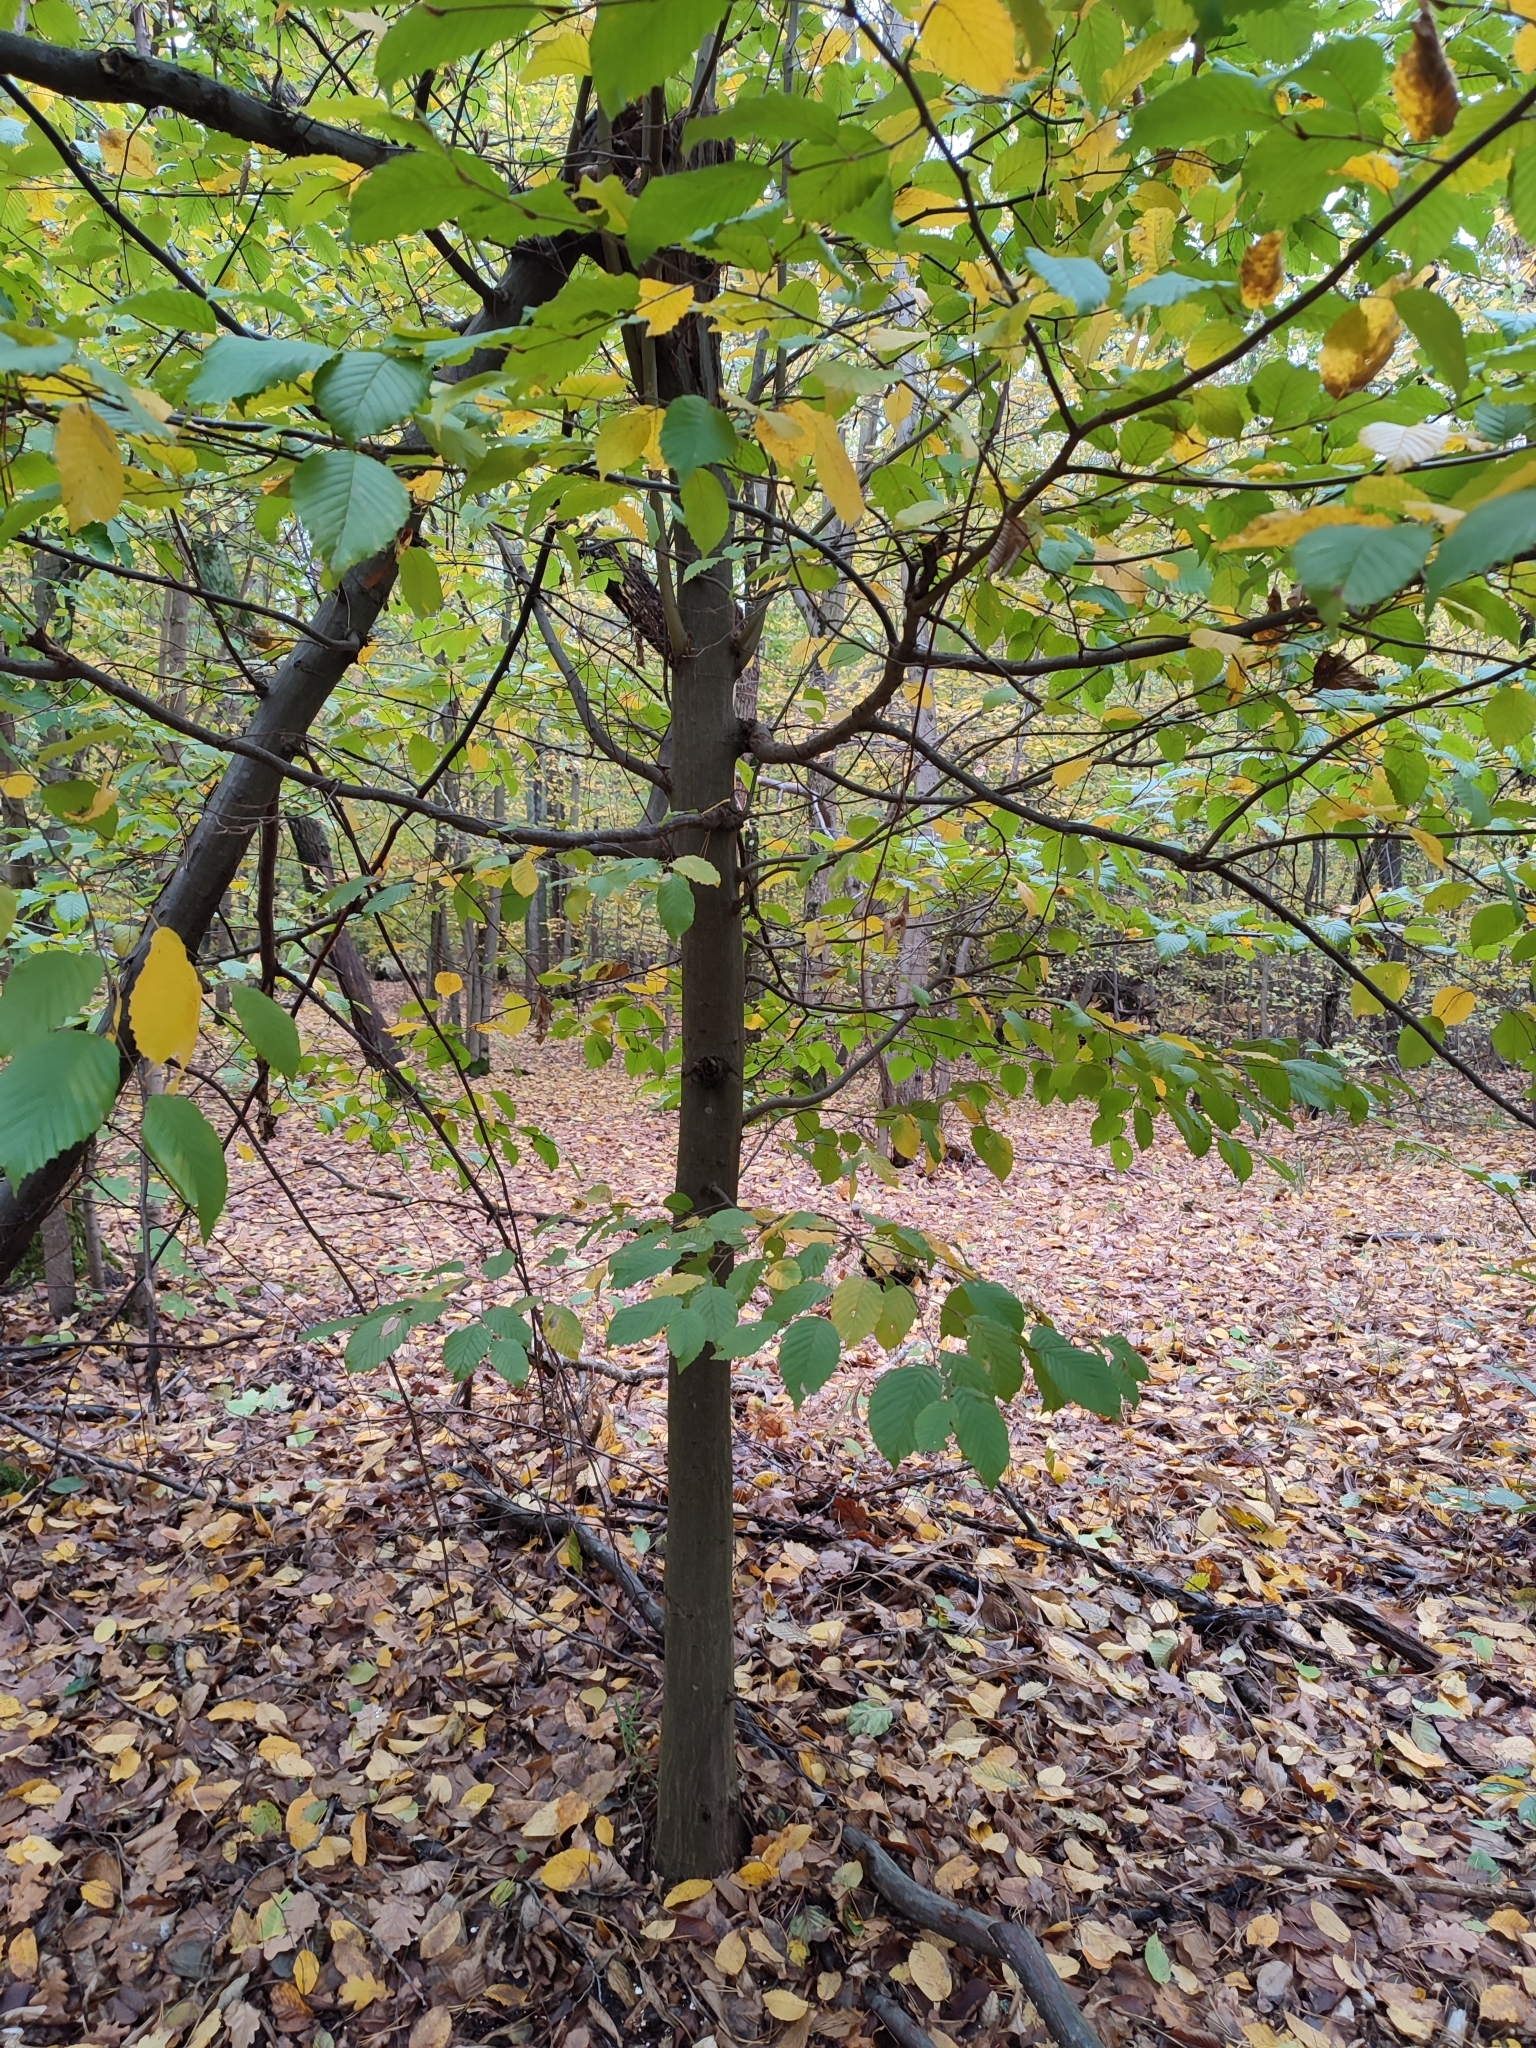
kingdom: Plantae
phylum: Tracheophyta
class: Magnoliopsida
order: Fagales
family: Betulaceae
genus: Carpinus
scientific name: Carpinus betulus
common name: Hornbeam
